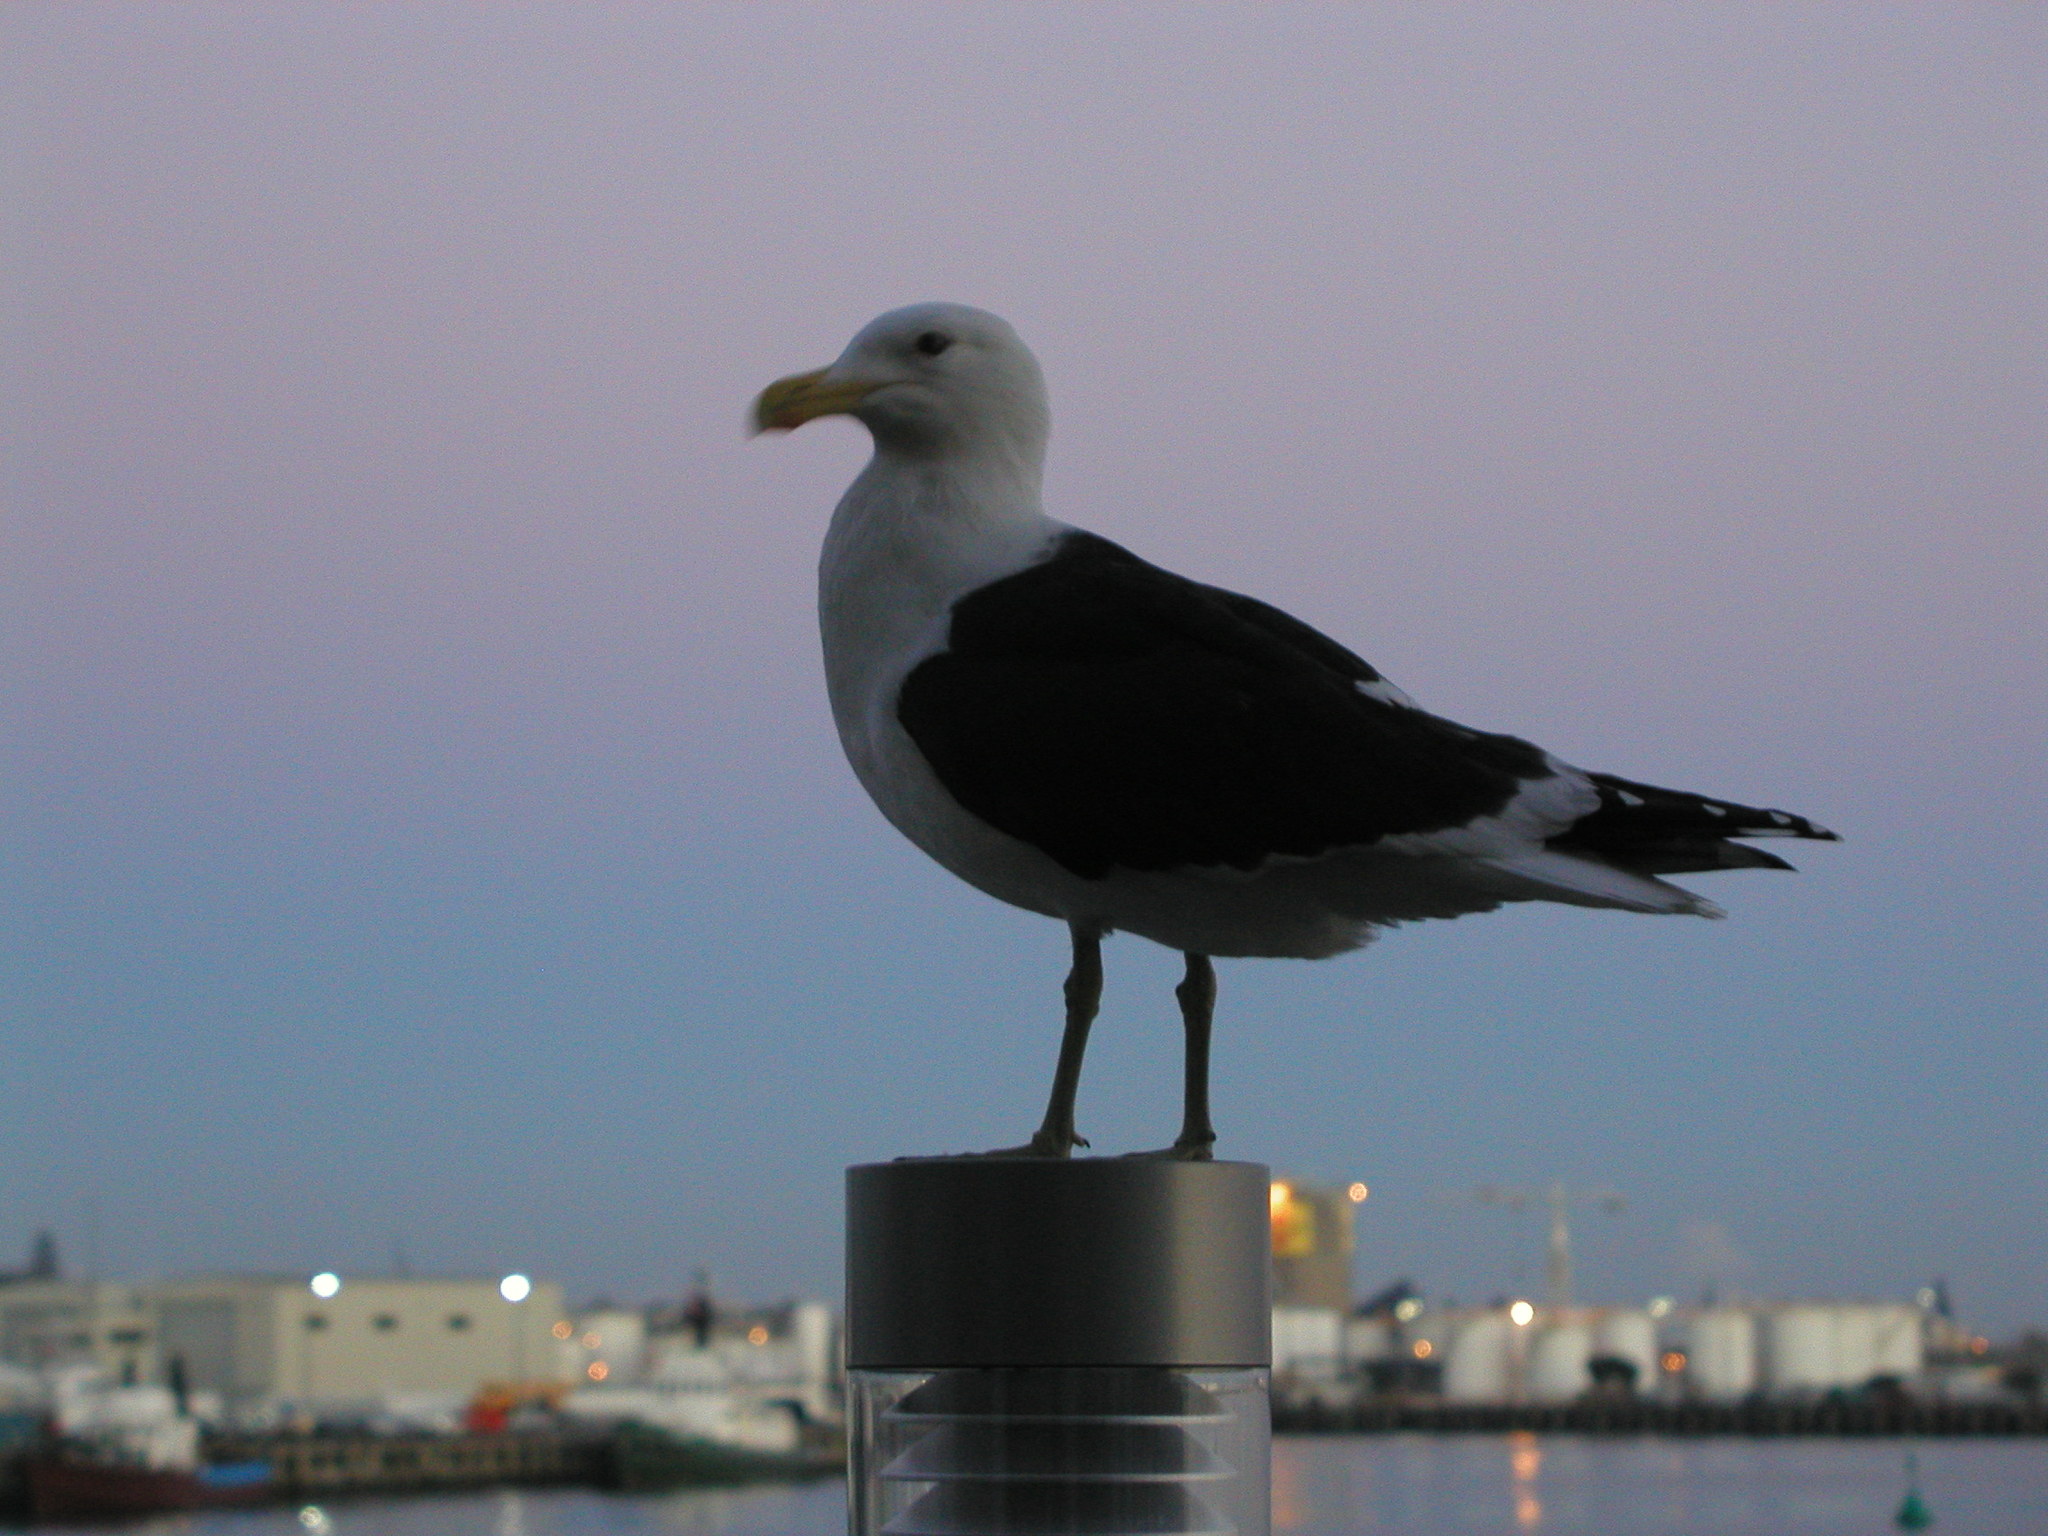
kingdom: Animalia
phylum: Chordata
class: Aves
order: Charadriiformes
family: Laridae
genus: Larus
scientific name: Larus dominicanus
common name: Kelp gull
